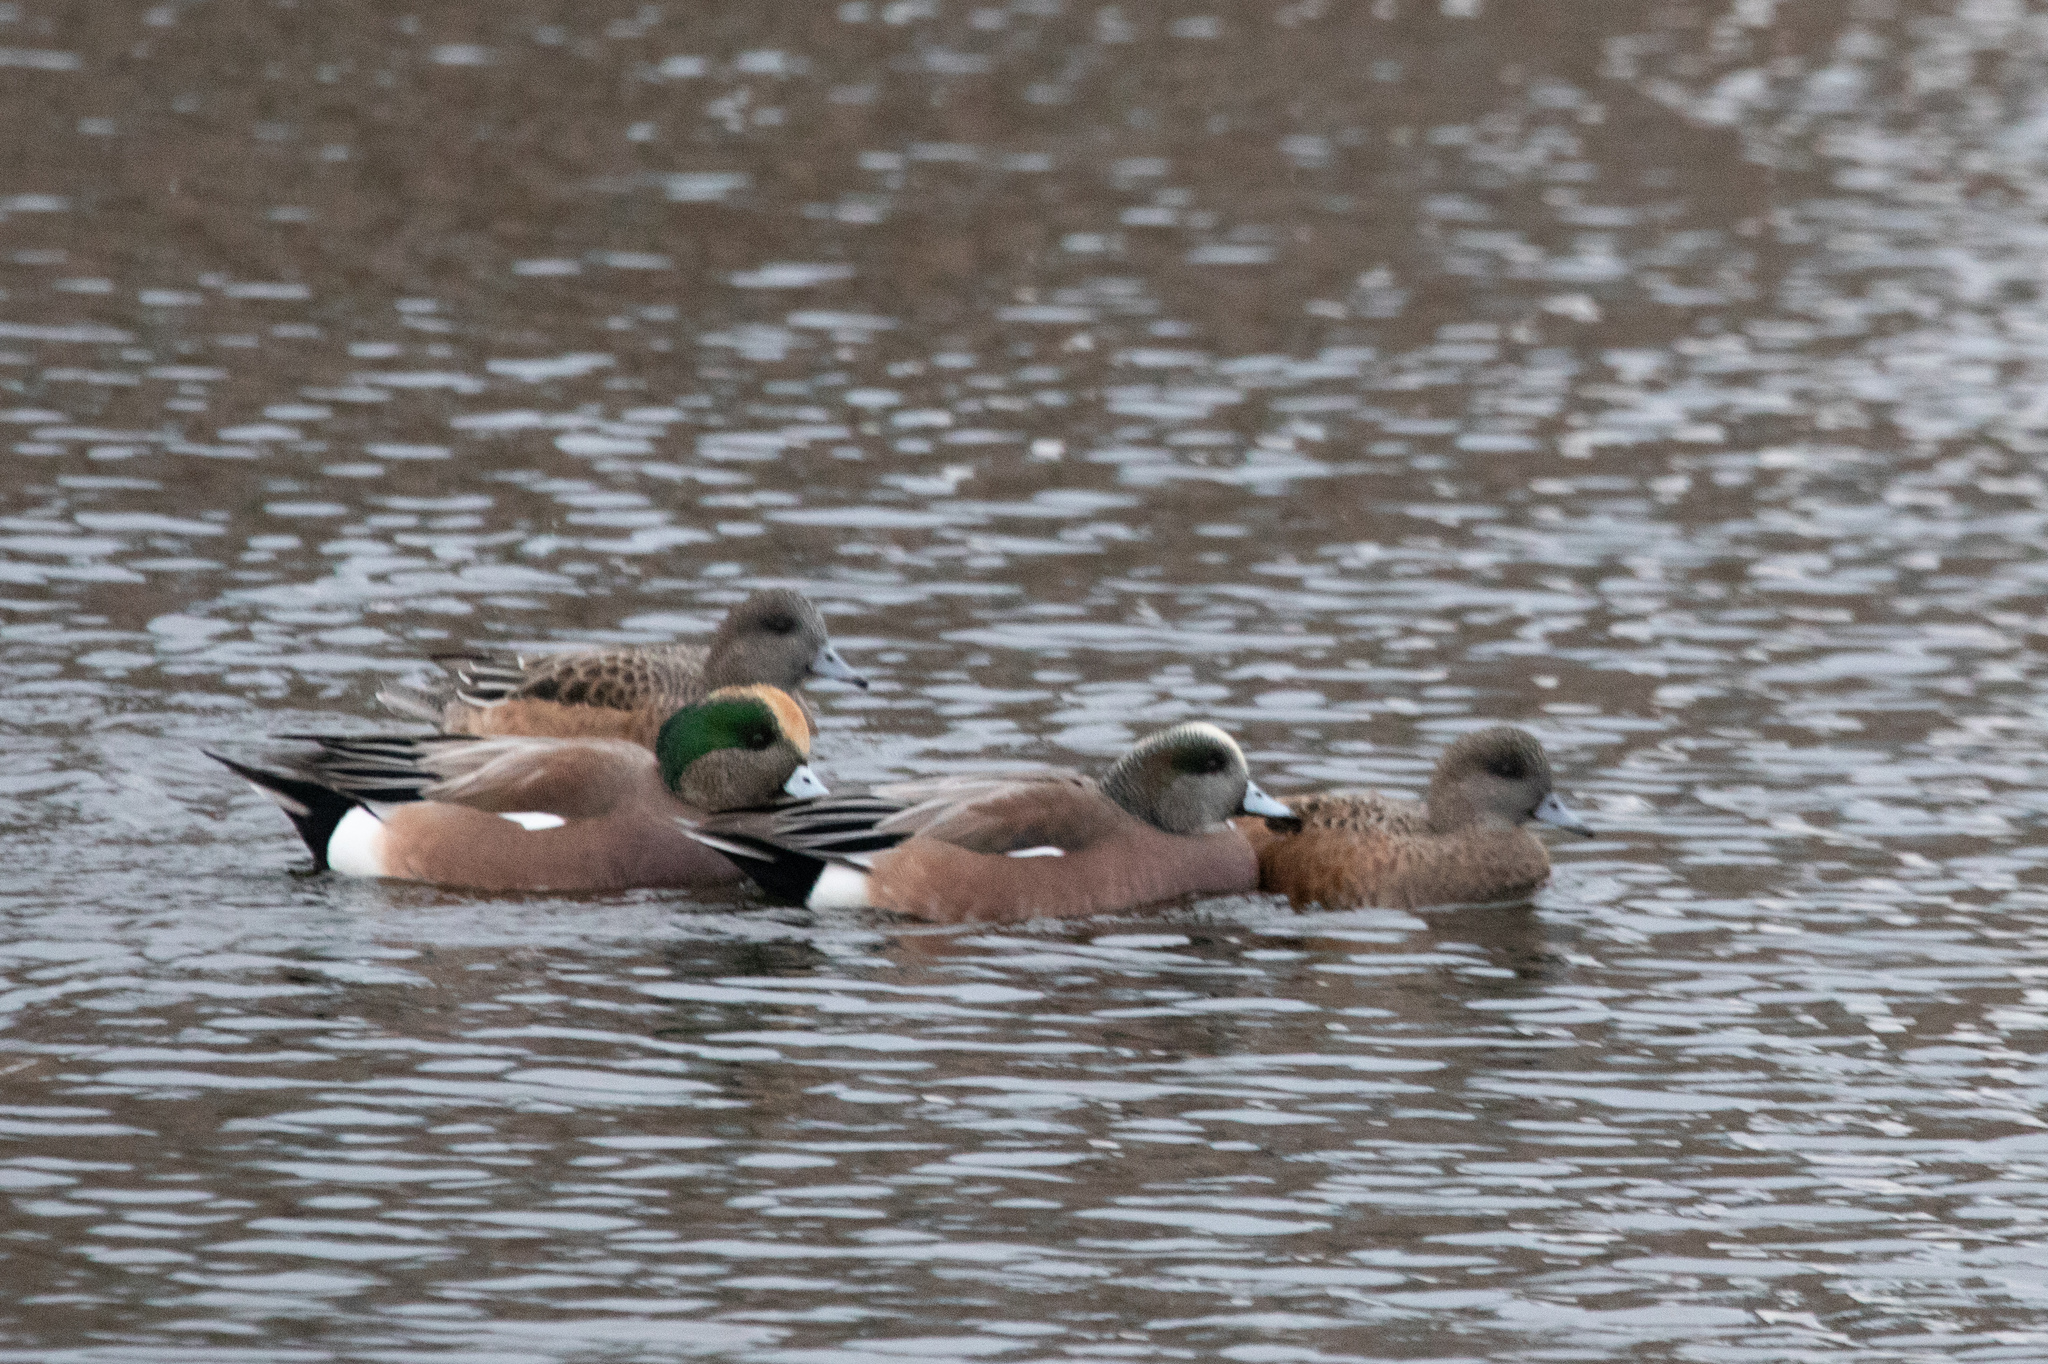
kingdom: Animalia
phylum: Chordata
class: Aves
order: Anseriformes
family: Anatidae
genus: Mareca
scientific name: Mareca americana
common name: American wigeon
